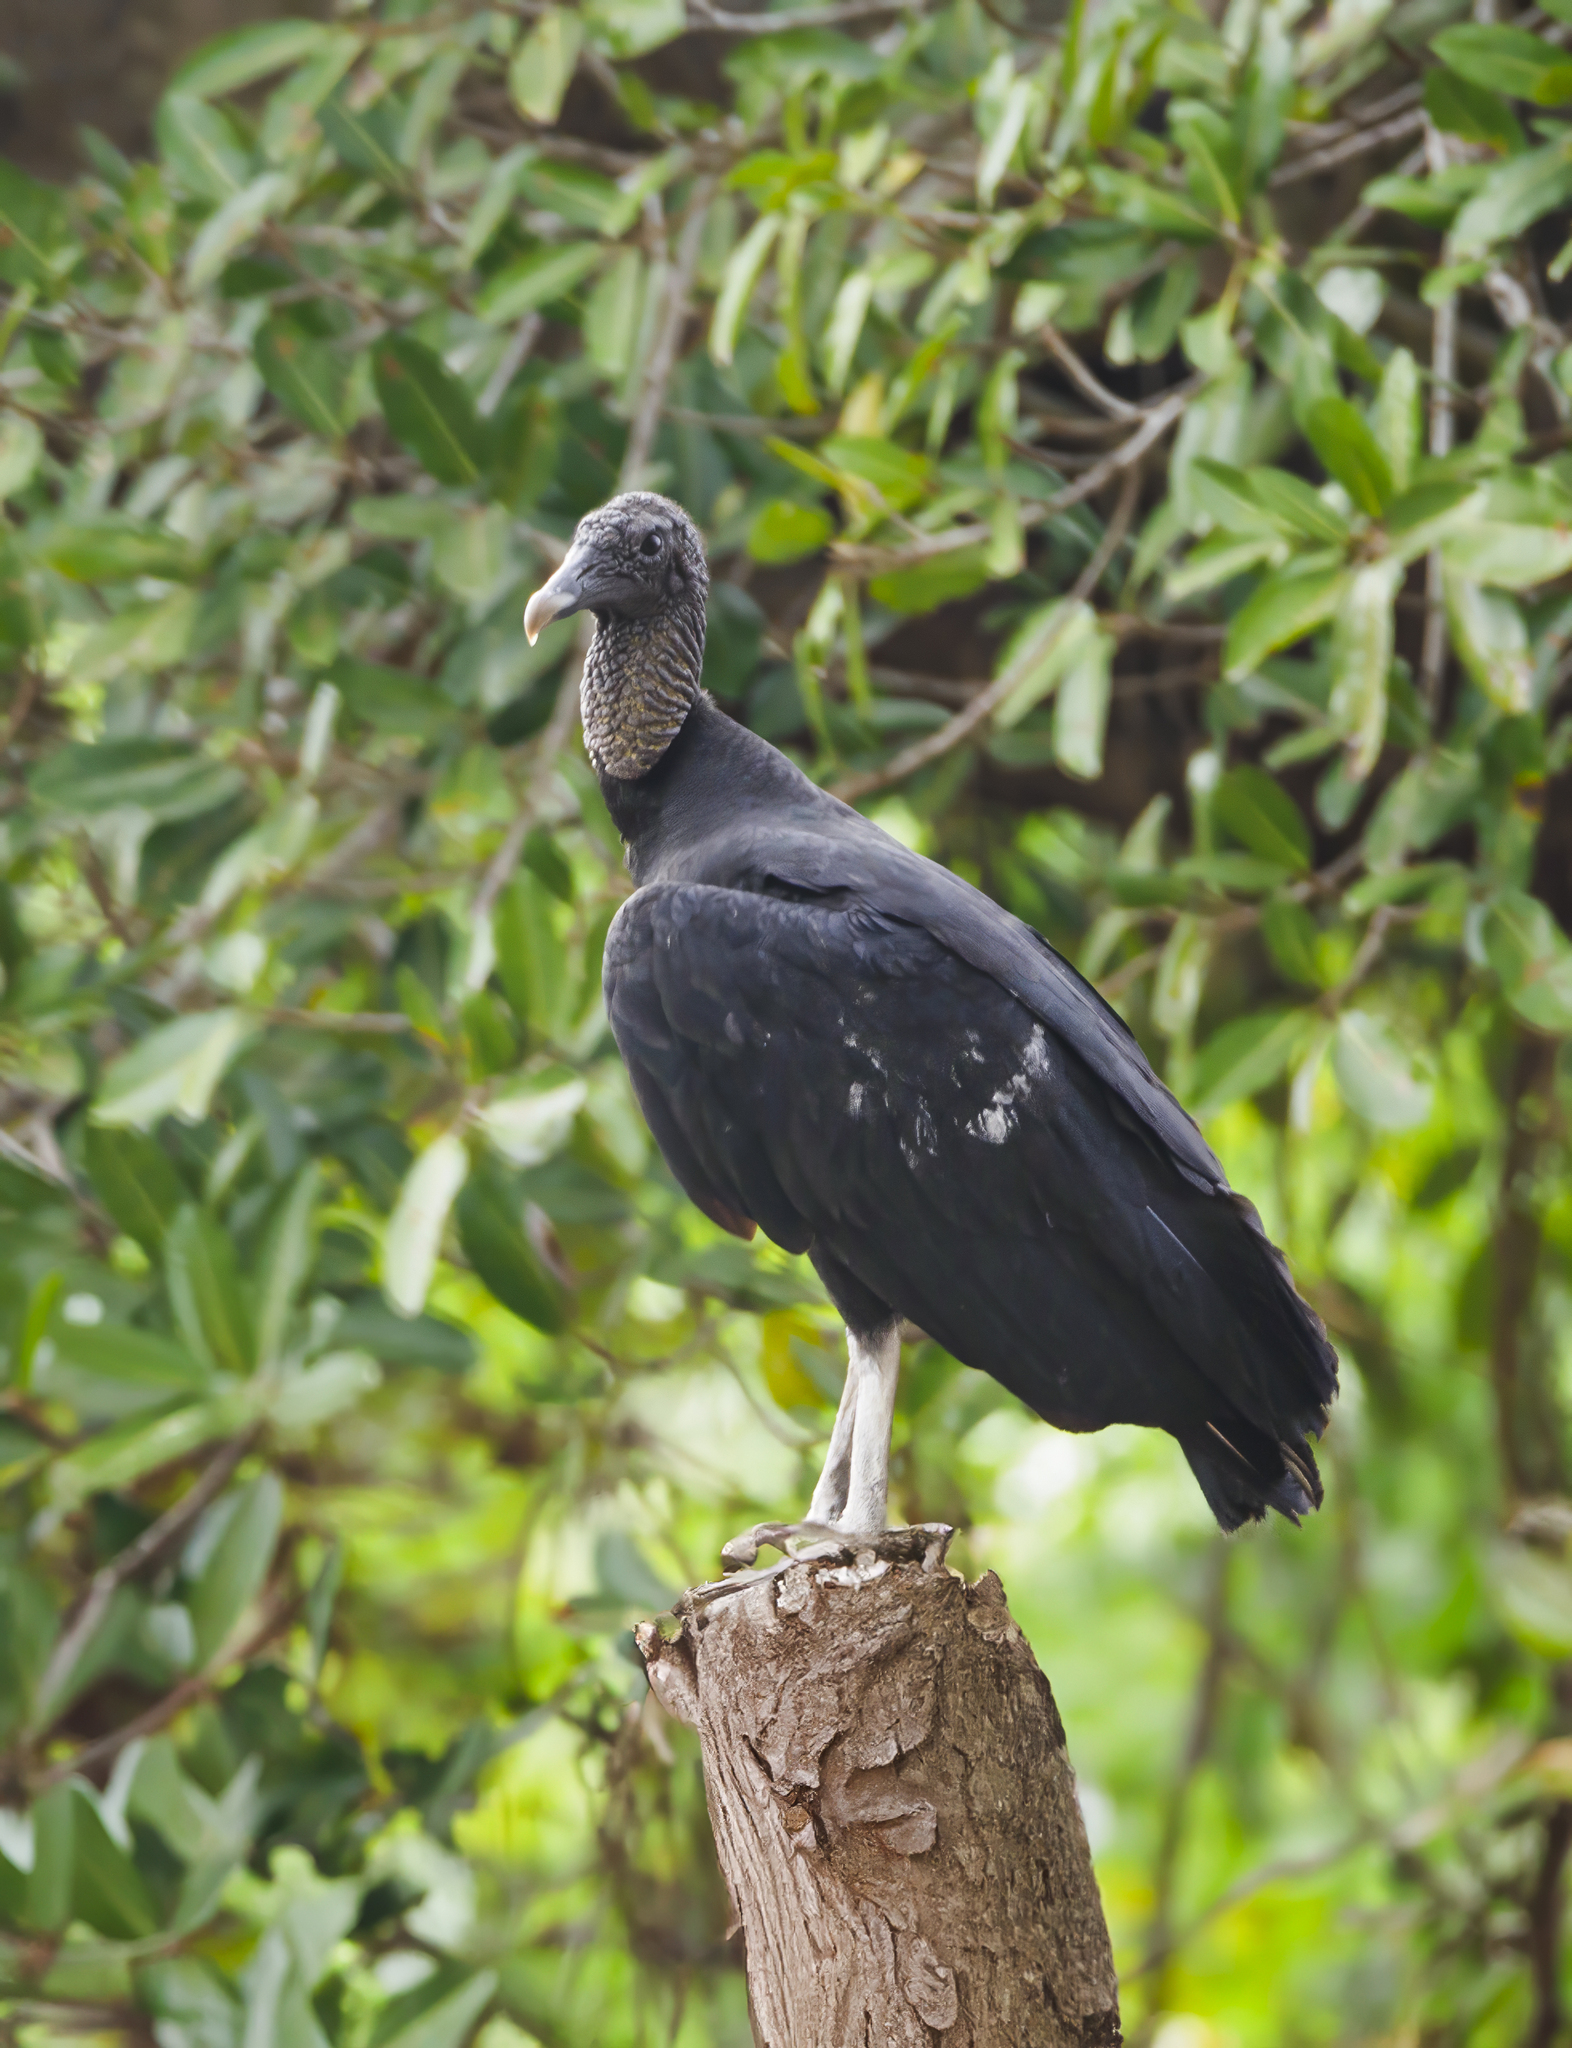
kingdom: Animalia
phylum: Chordata
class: Aves
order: Accipitriformes
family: Cathartidae
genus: Coragyps
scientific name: Coragyps atratus
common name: Black vulture
